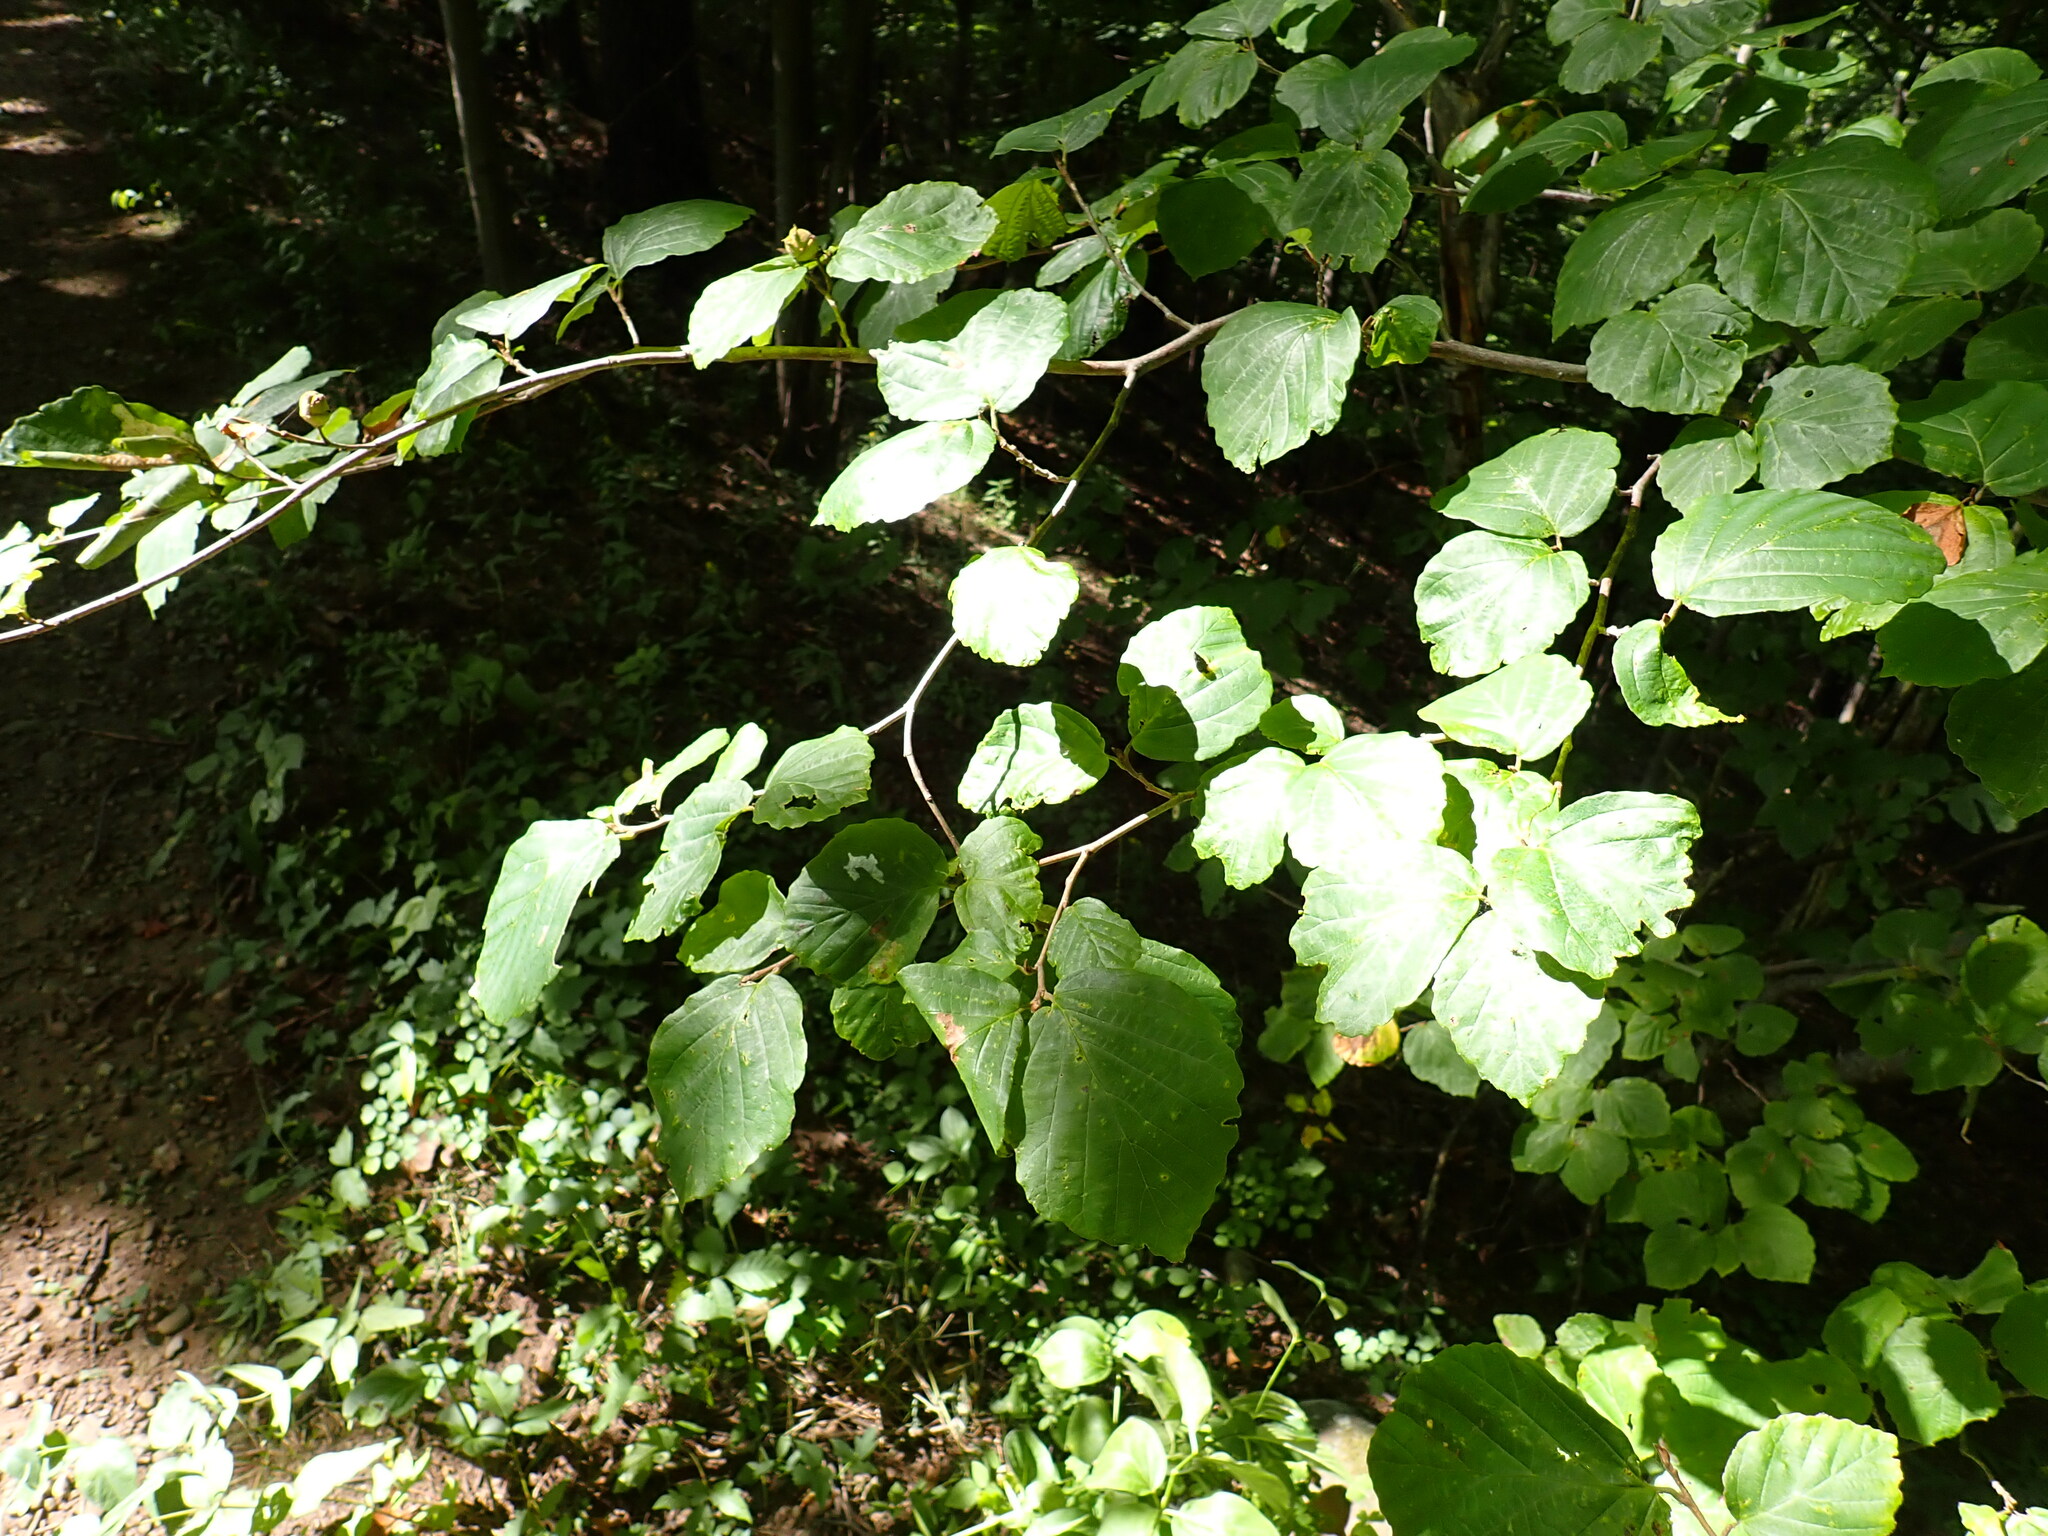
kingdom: Animalia
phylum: Arthropoda
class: Insecta
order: Hemiptera
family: Aphididae
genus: Hormaphis
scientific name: Hormaphis hamamelidis
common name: Witch-hazel cone gall aphid
